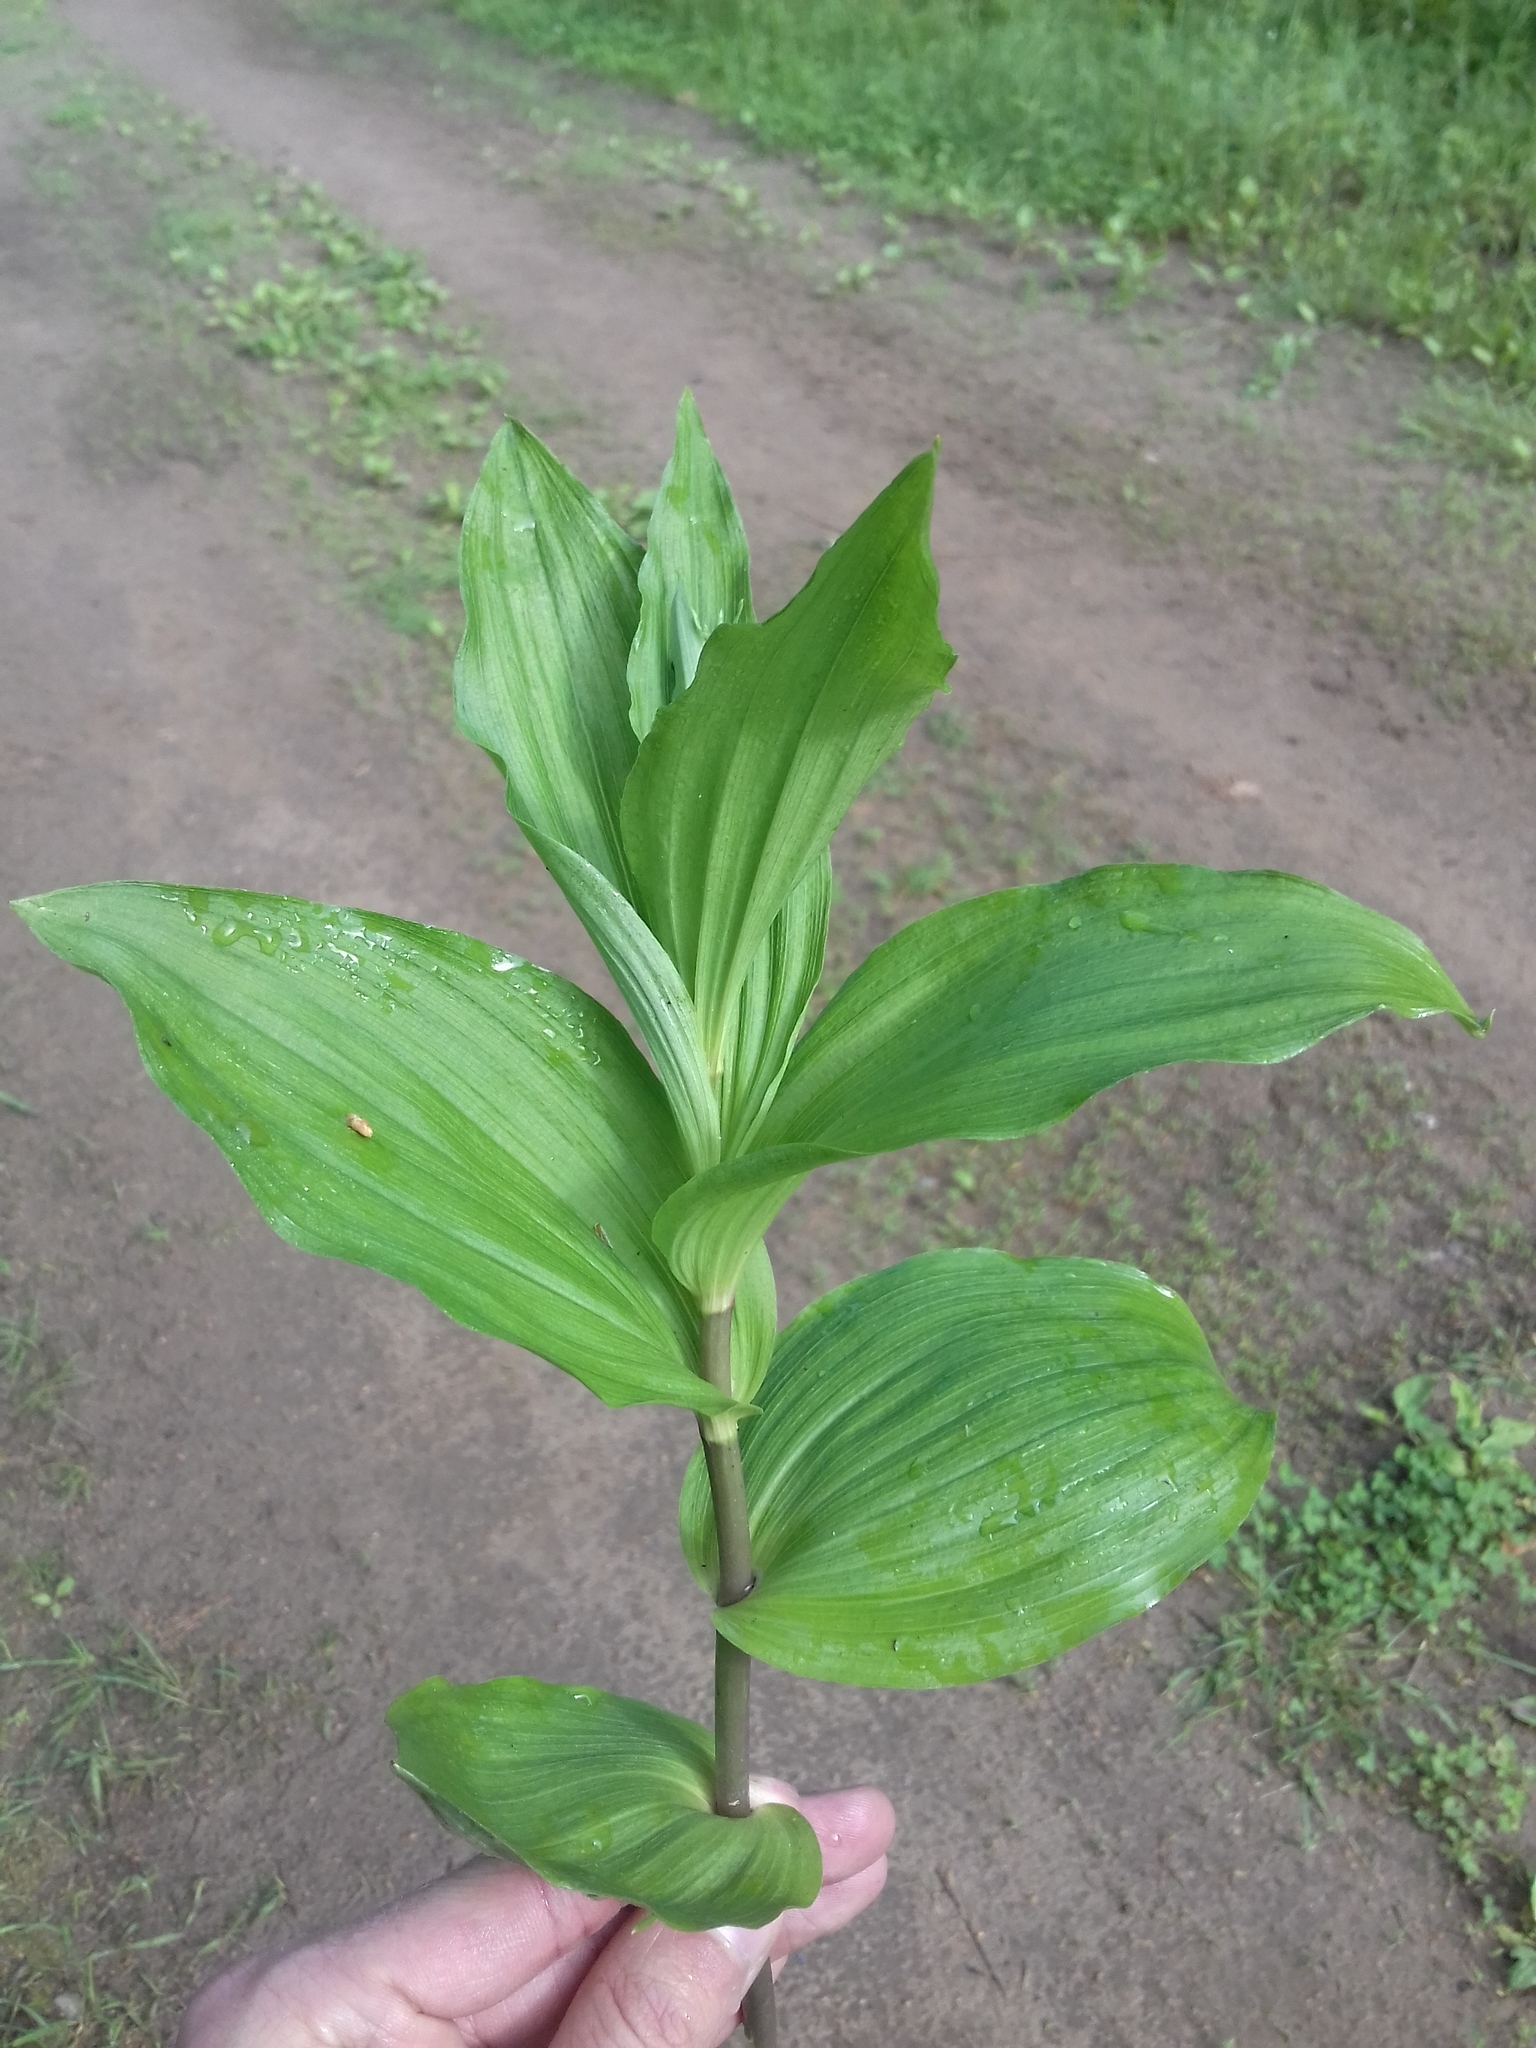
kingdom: Plantae
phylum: Tracheophyta
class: Liliopsida
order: Asparagales
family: Orchidaceae
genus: Epipactis
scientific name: Epipactis helleborine
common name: Broad-leaved helleborine
